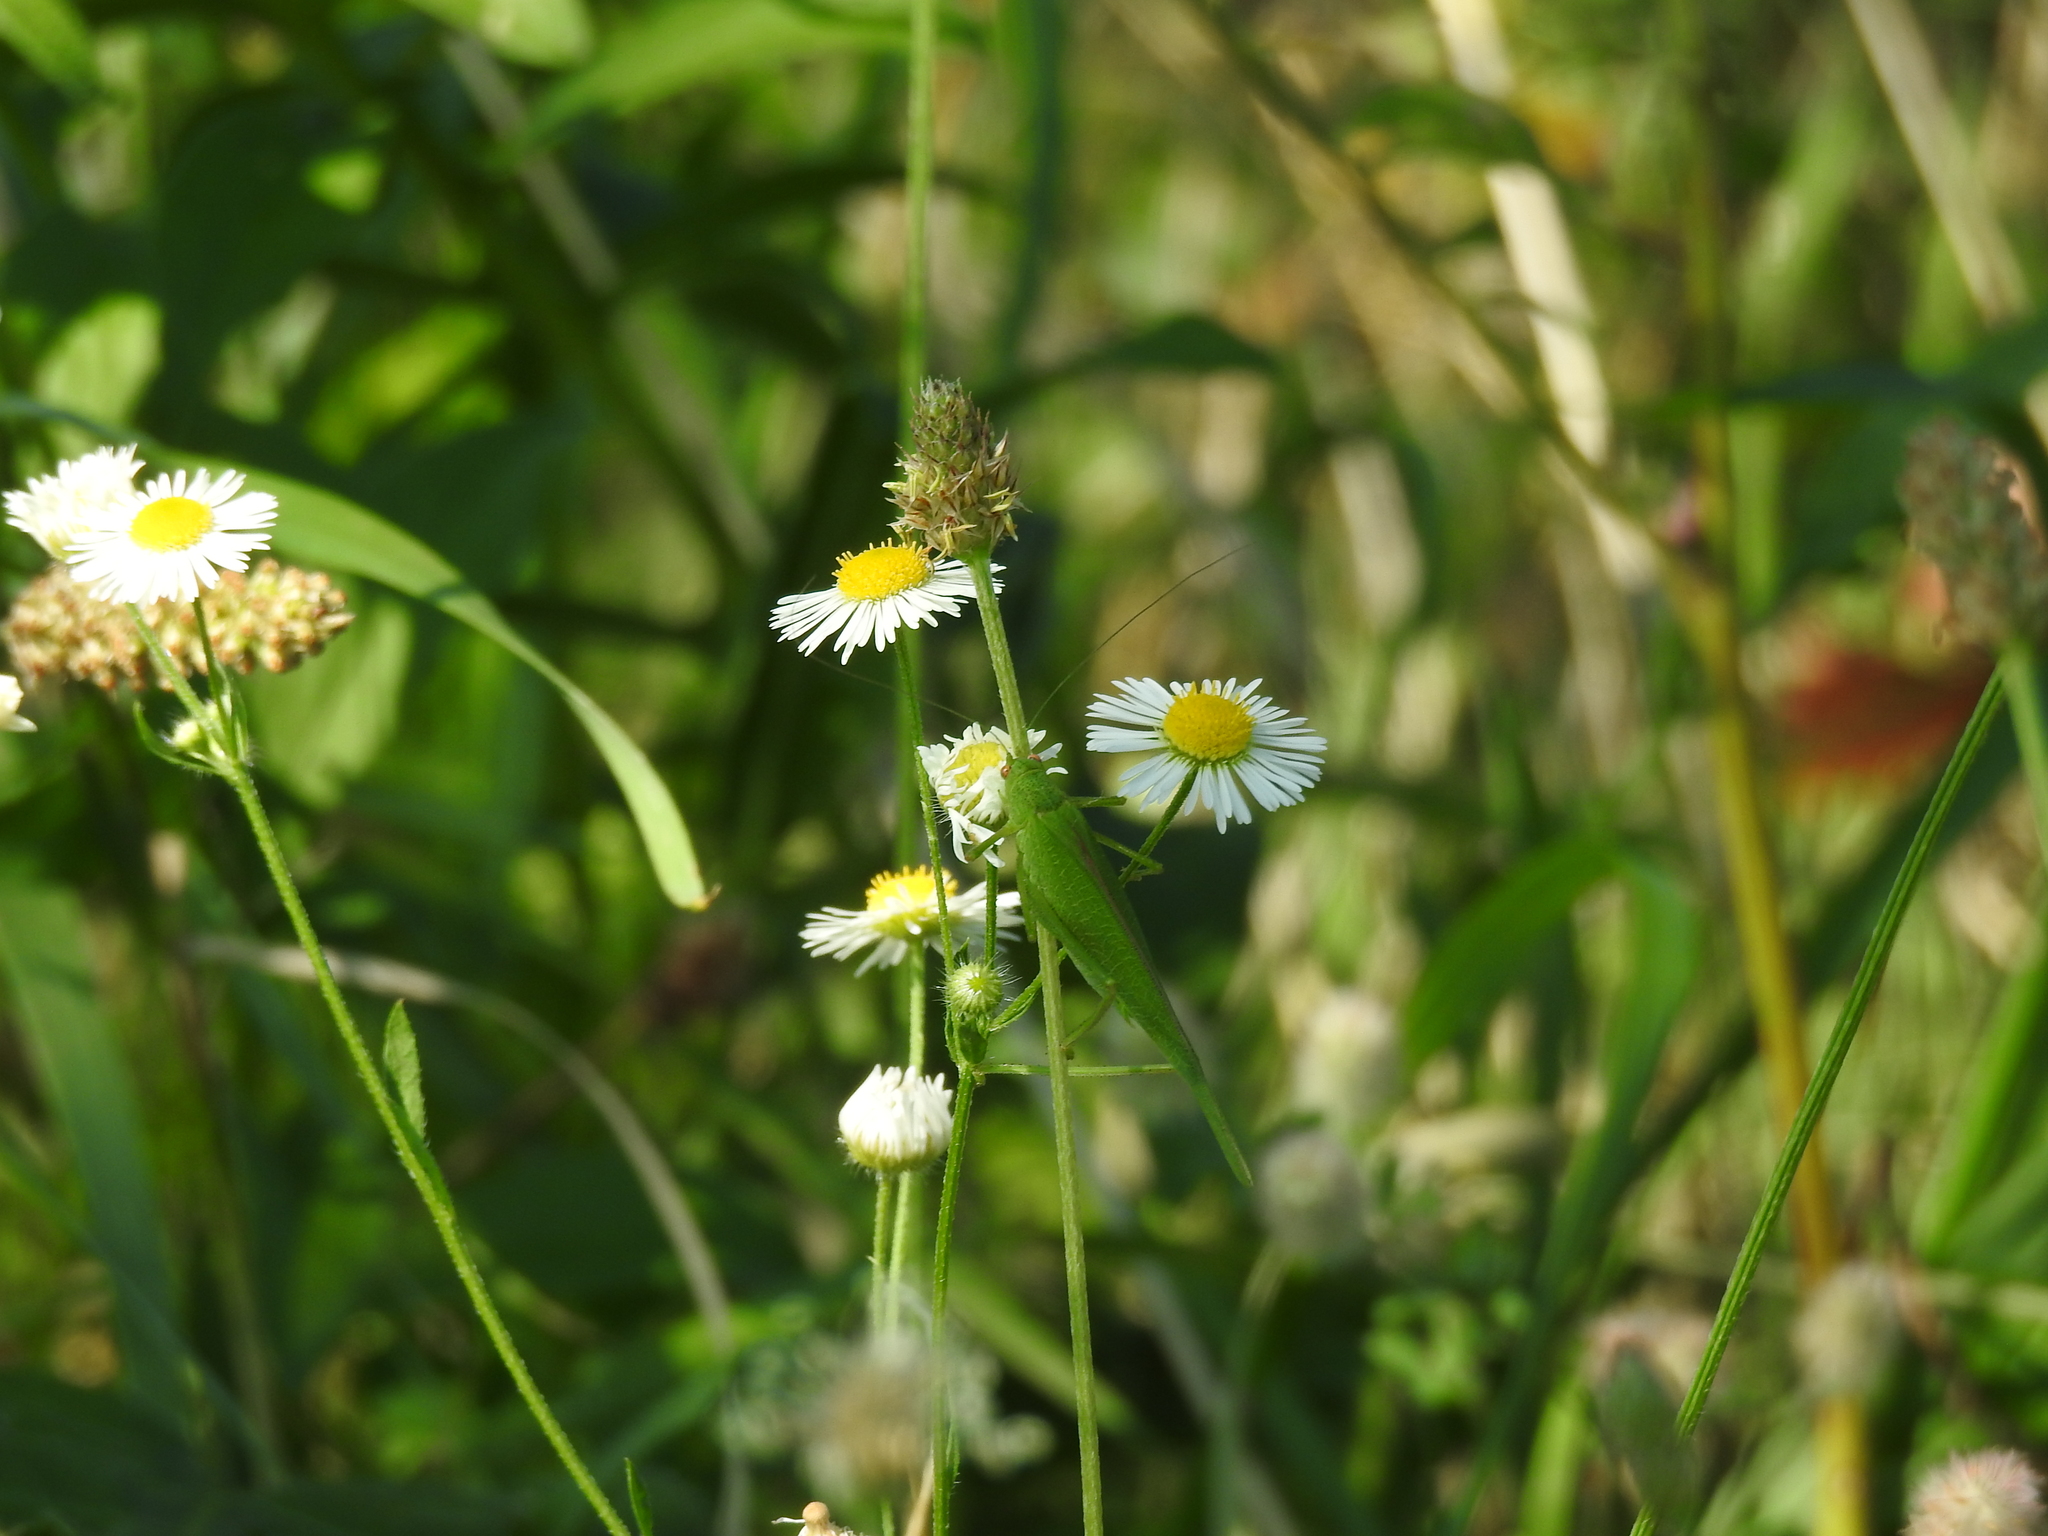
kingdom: Animalia
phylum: Arthropoda
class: Insecta
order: Orthoptera
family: Tettigoniidae
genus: Phaneroptera
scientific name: Phaneroptera falcata
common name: Sickle-bearing bush-cricket
